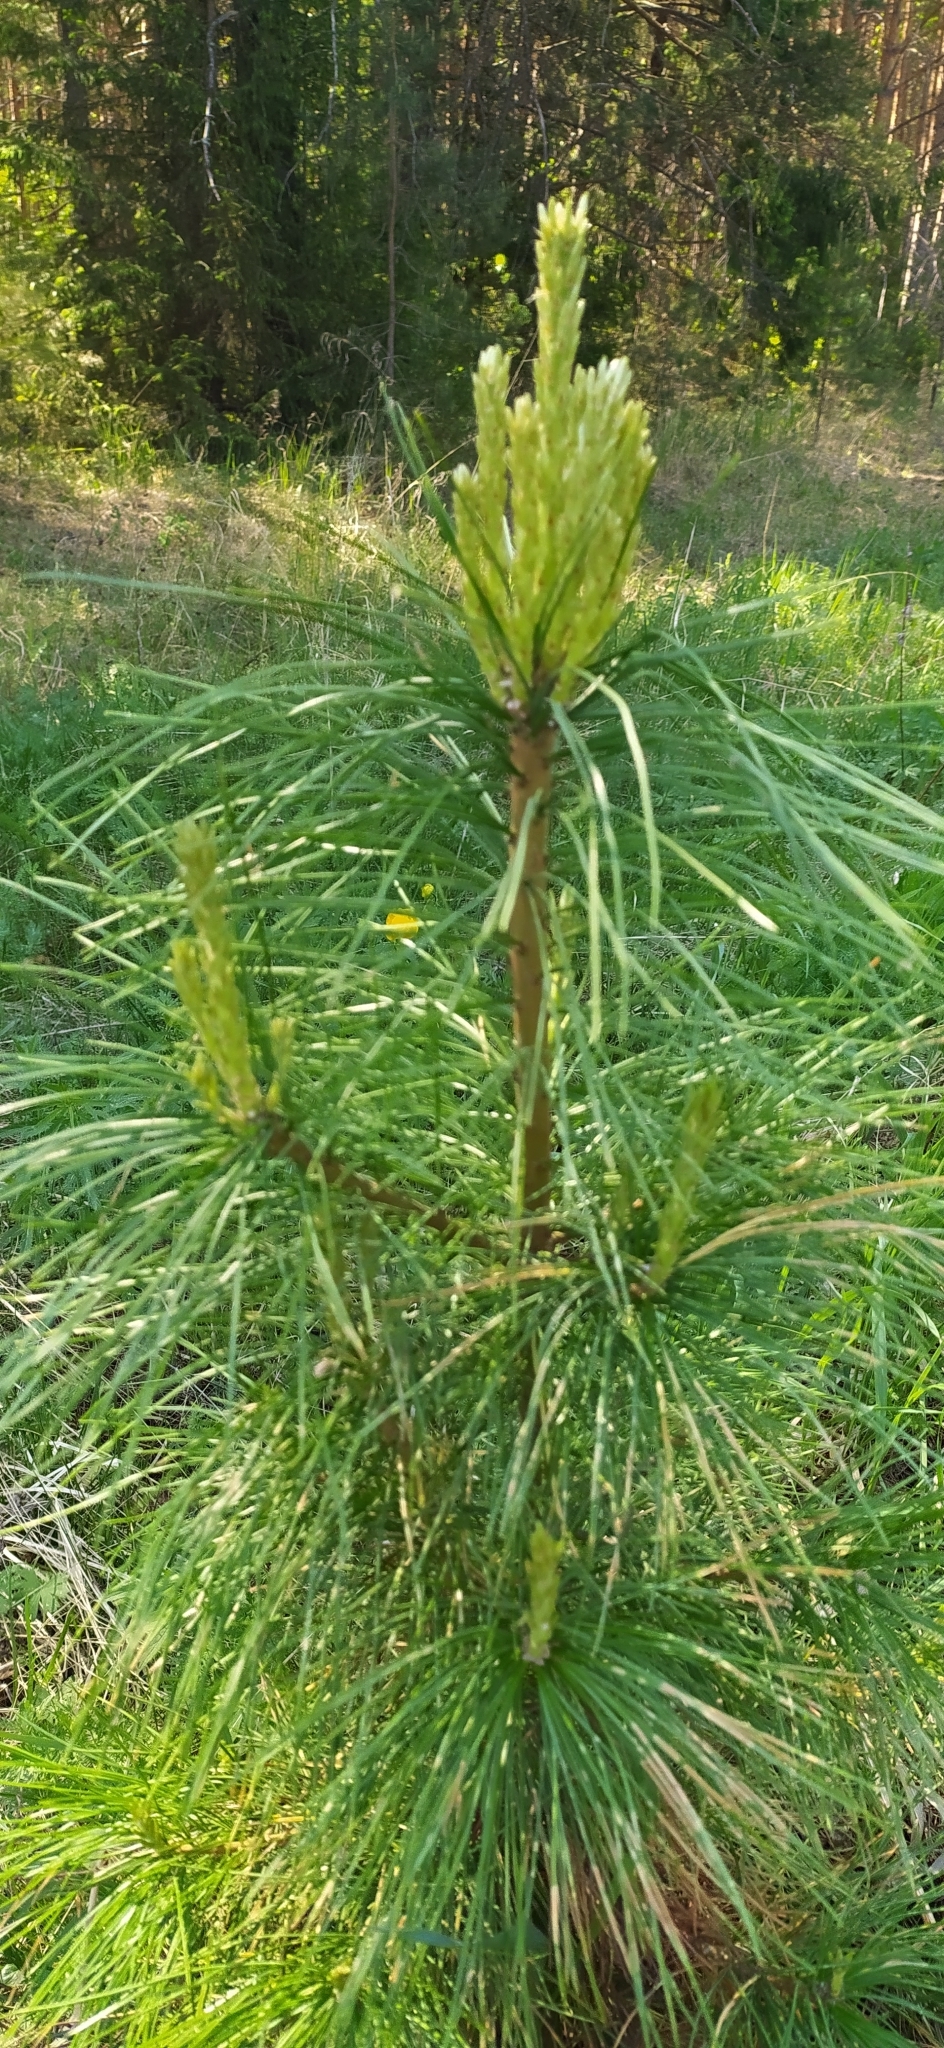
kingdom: Plantae
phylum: Tracheophyta
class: Pinopsida
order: Pinales
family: Pinaceae
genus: Pinus
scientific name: Pinus sibirica
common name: Siberian pine
